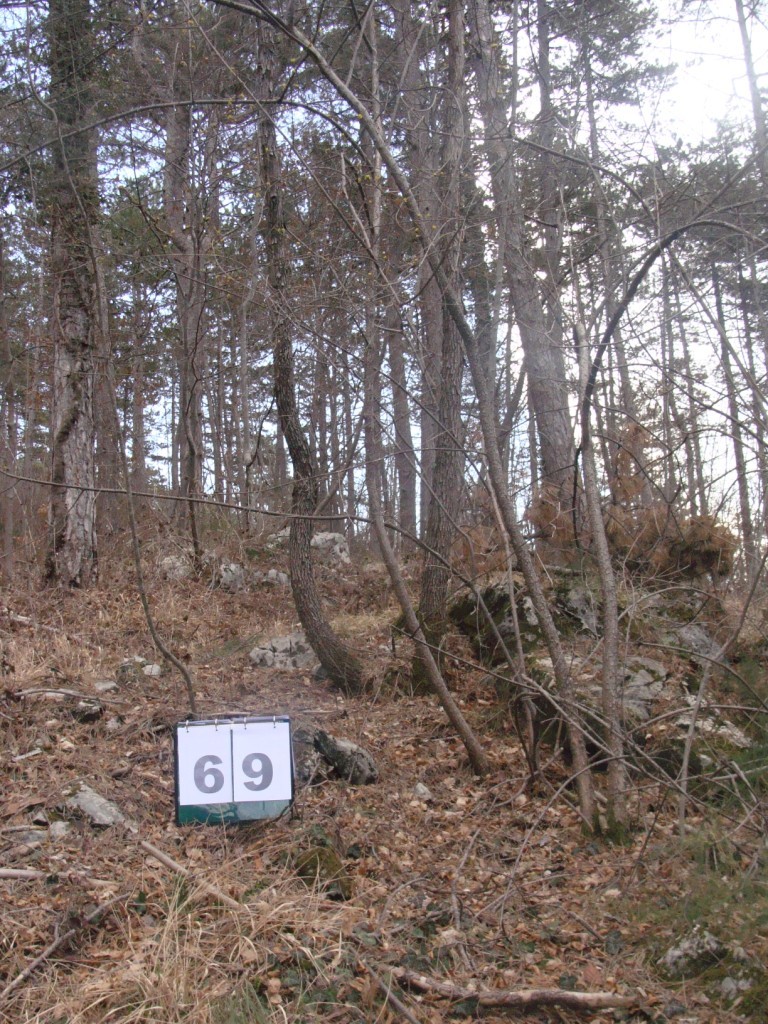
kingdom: Plantae
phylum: Tracheophyta
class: Magnoliopsida
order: Cornales
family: Cornaceae
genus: Cornus
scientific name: Cornus mas
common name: Cornelian-cherry
